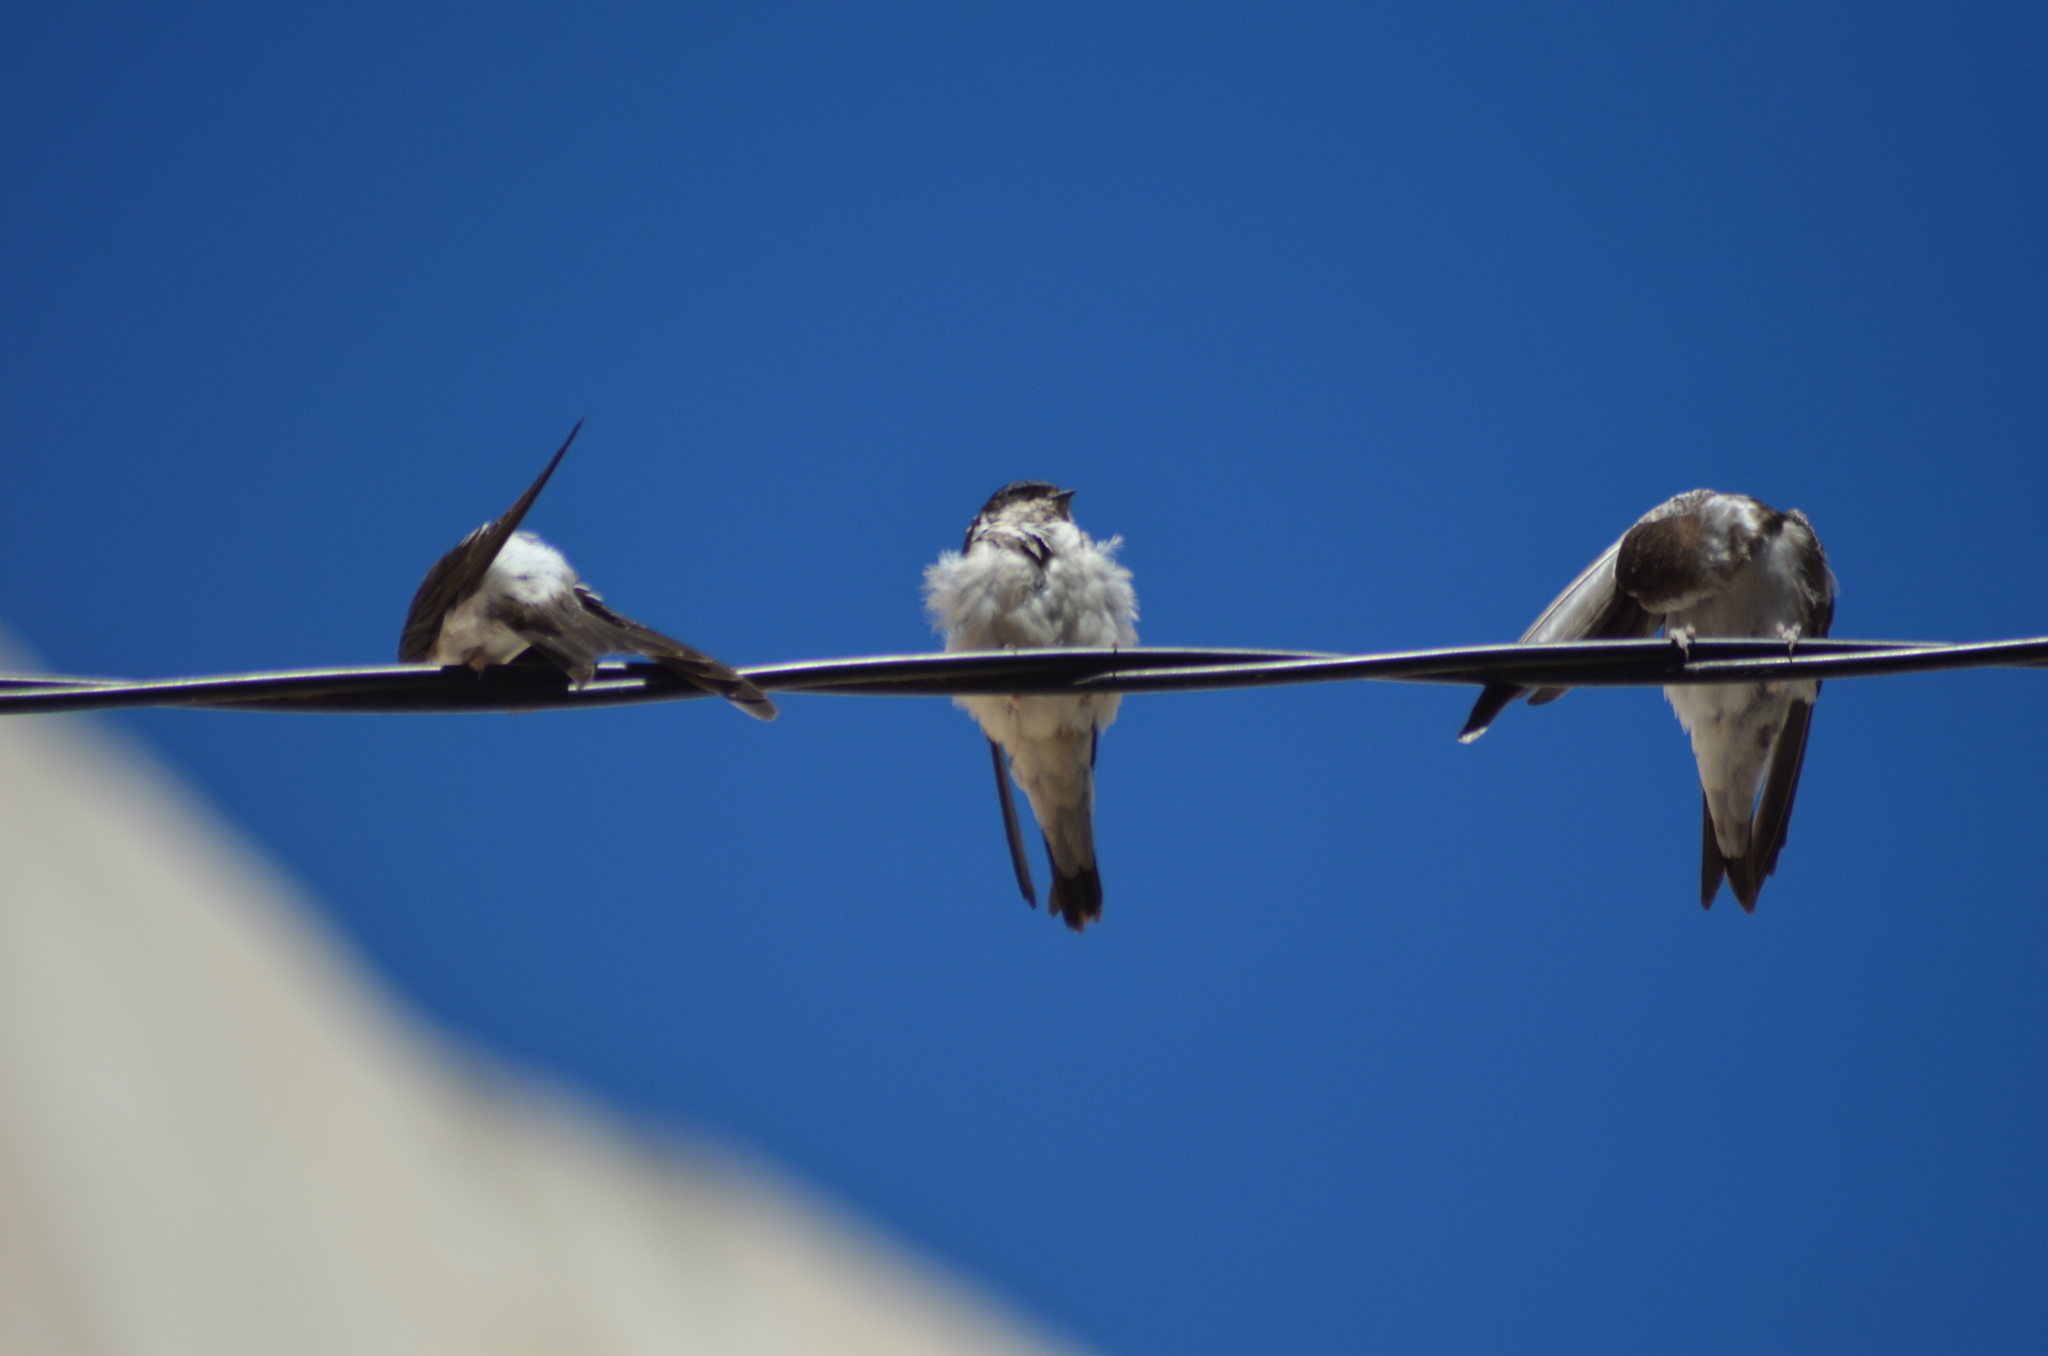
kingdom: Animalia
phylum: Chordata
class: Aves
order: Passeriformes
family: Hirundinidae
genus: Delichon
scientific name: Delichon urbicum
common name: Common house martin
